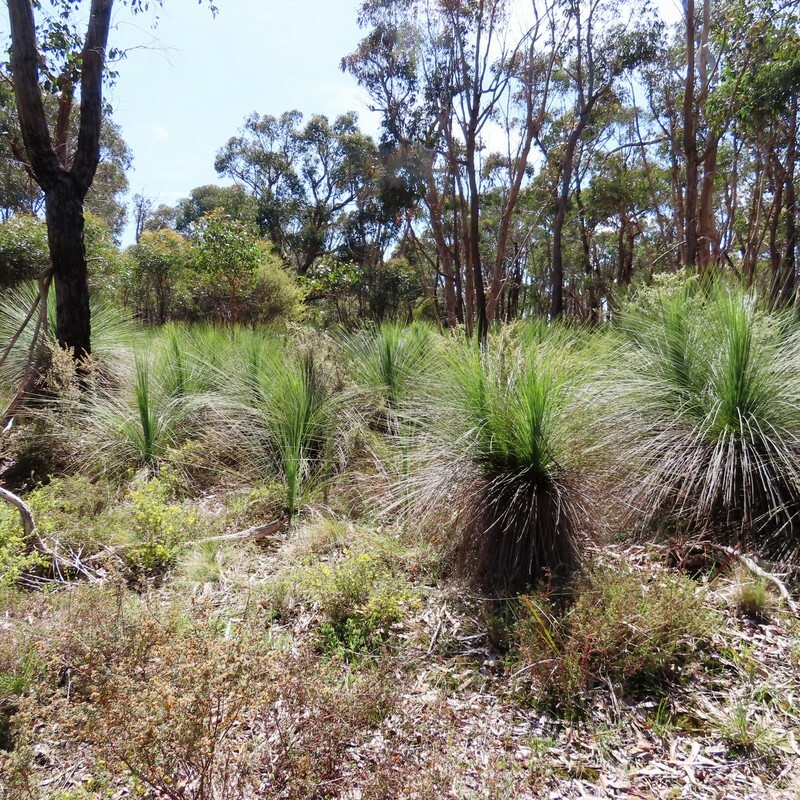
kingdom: Plantae
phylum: Tracheophyta
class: Liliopsida
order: Asparagales
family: Asphodelaceae
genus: Xanthorrhoea
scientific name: Xanthorrhoea australis
